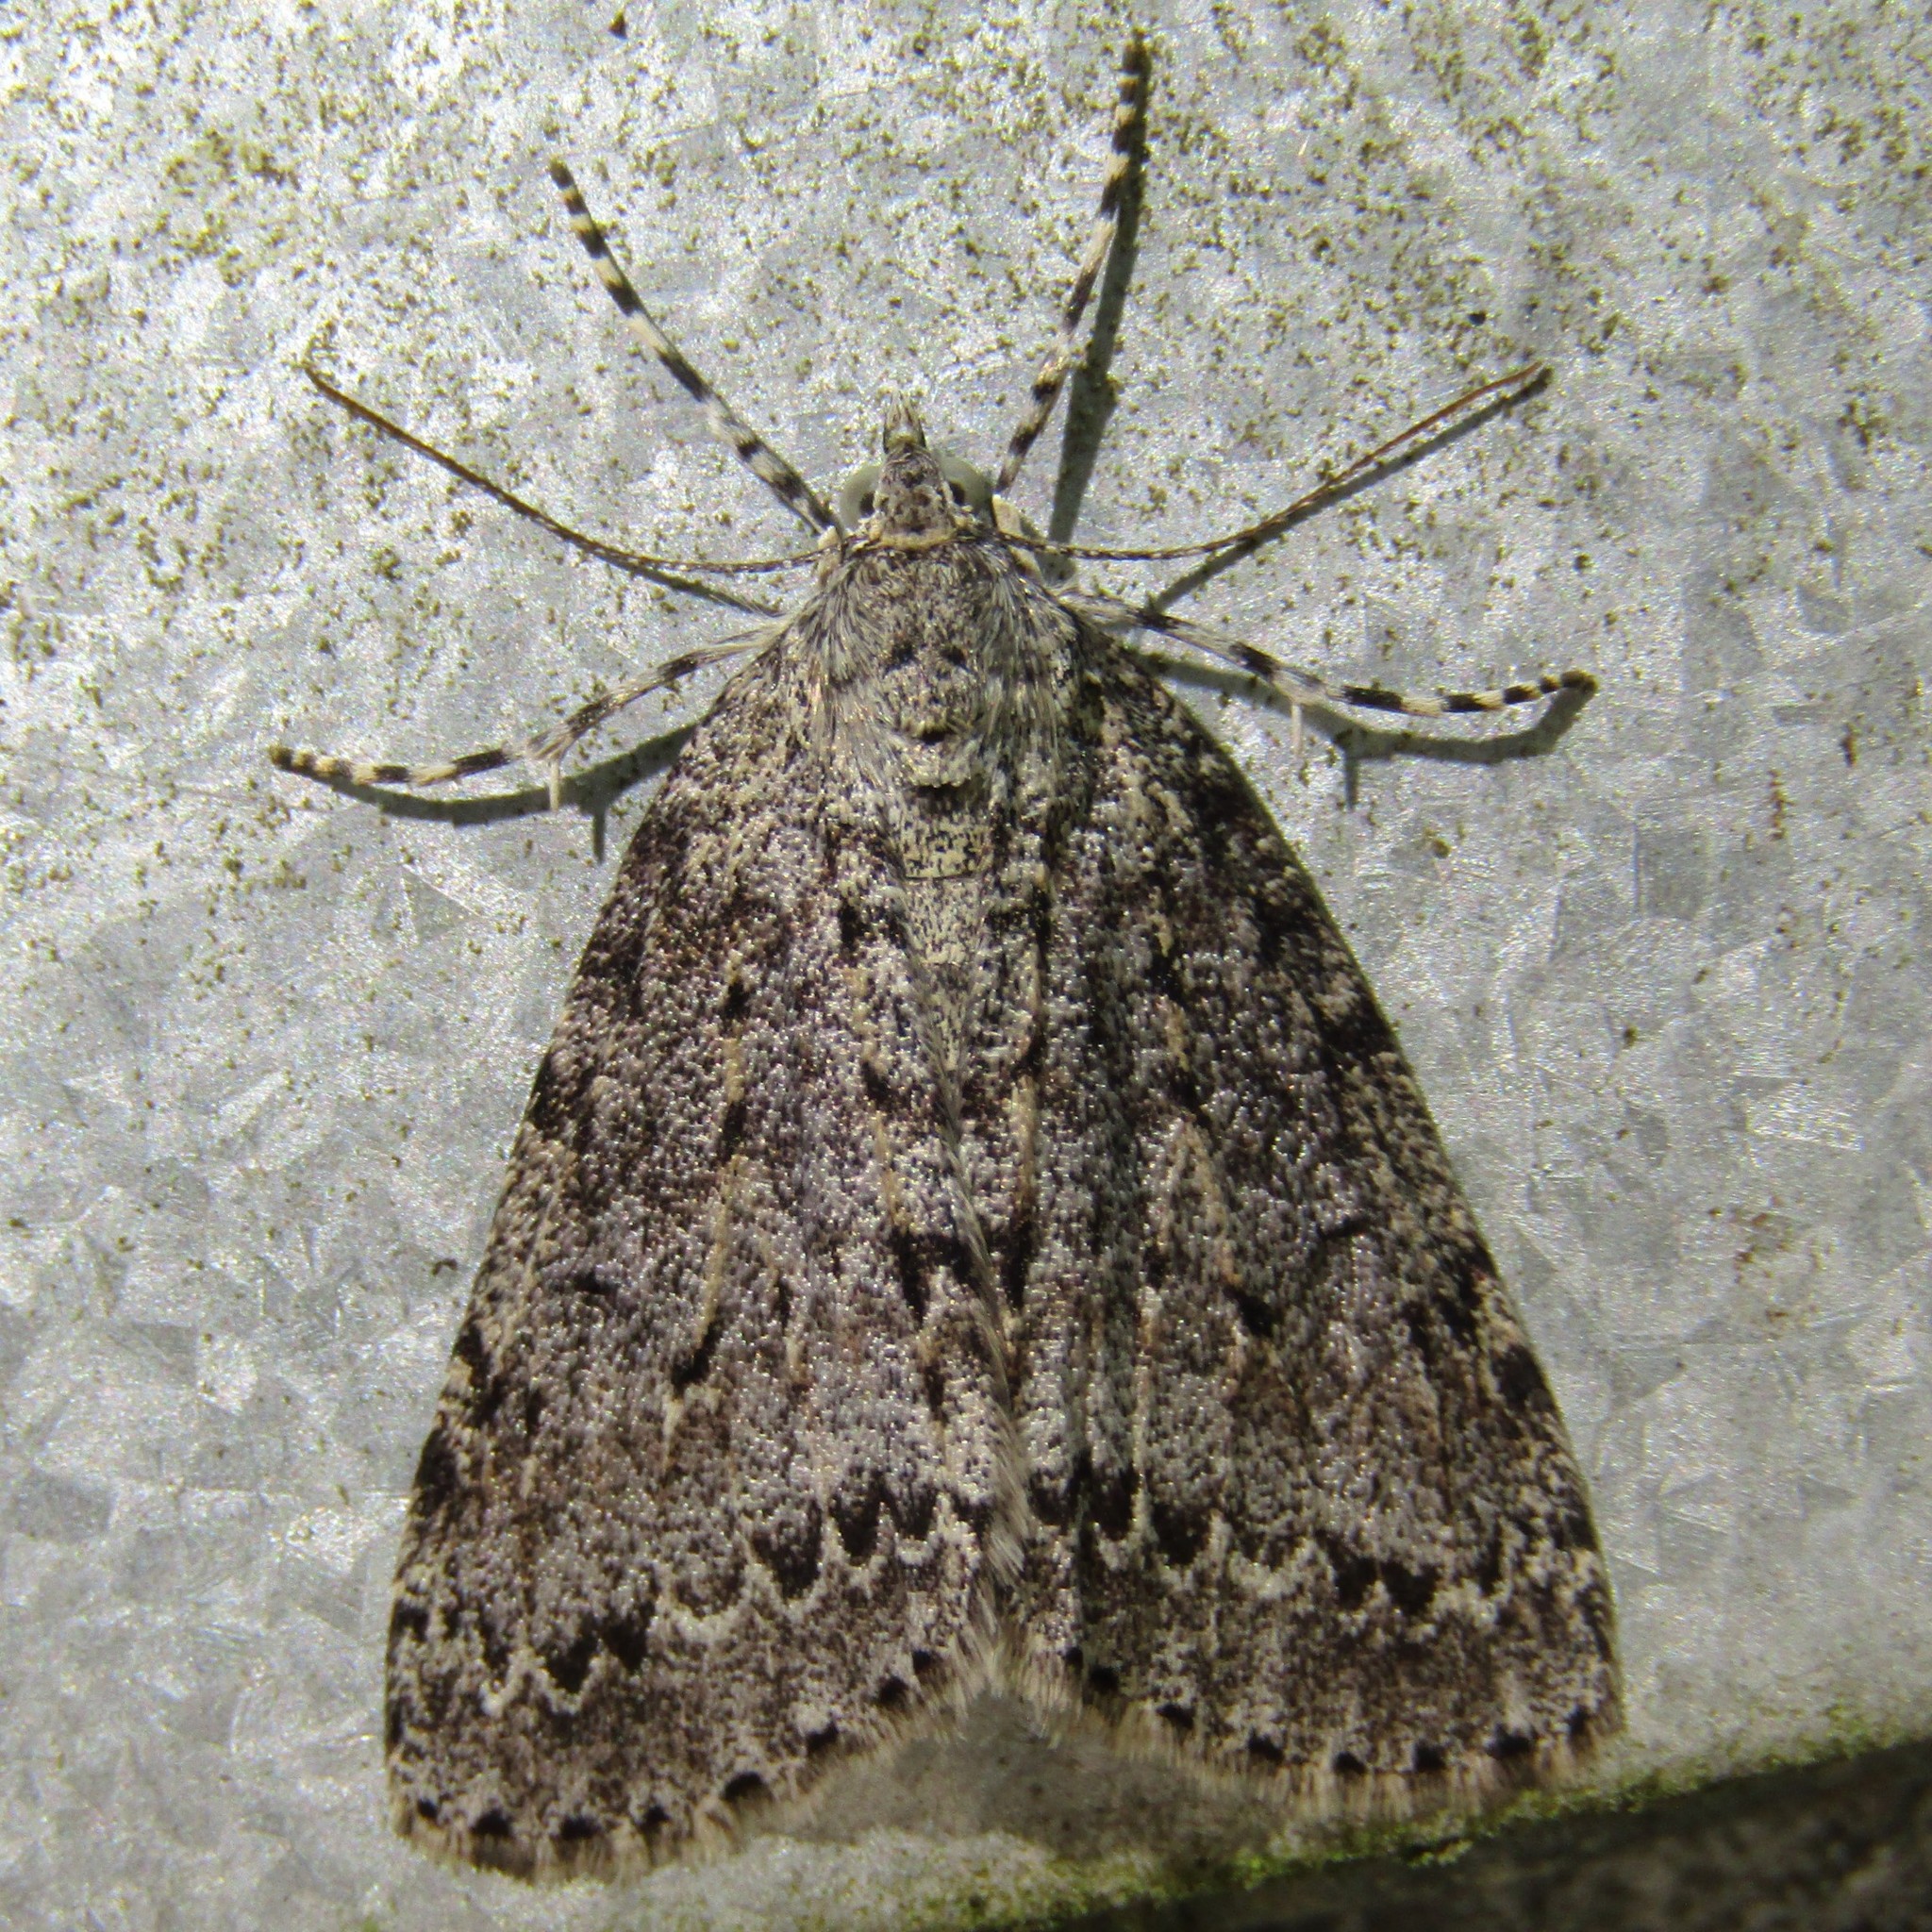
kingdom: Animalia
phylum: Arthropoda
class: Insecta
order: Lepidoptera
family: Geometridae
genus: Pseudocoremia
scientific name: Pseudocoremia fenerata
